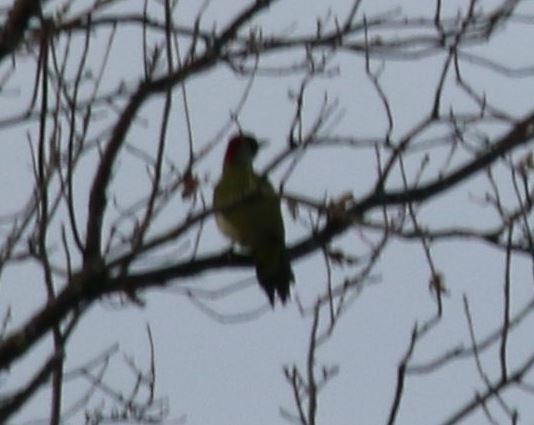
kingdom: Animalia
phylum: Chordata
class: Aves
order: Piciformes
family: Picidae
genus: Picus
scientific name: Picus viridis
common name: European green woodpecker
